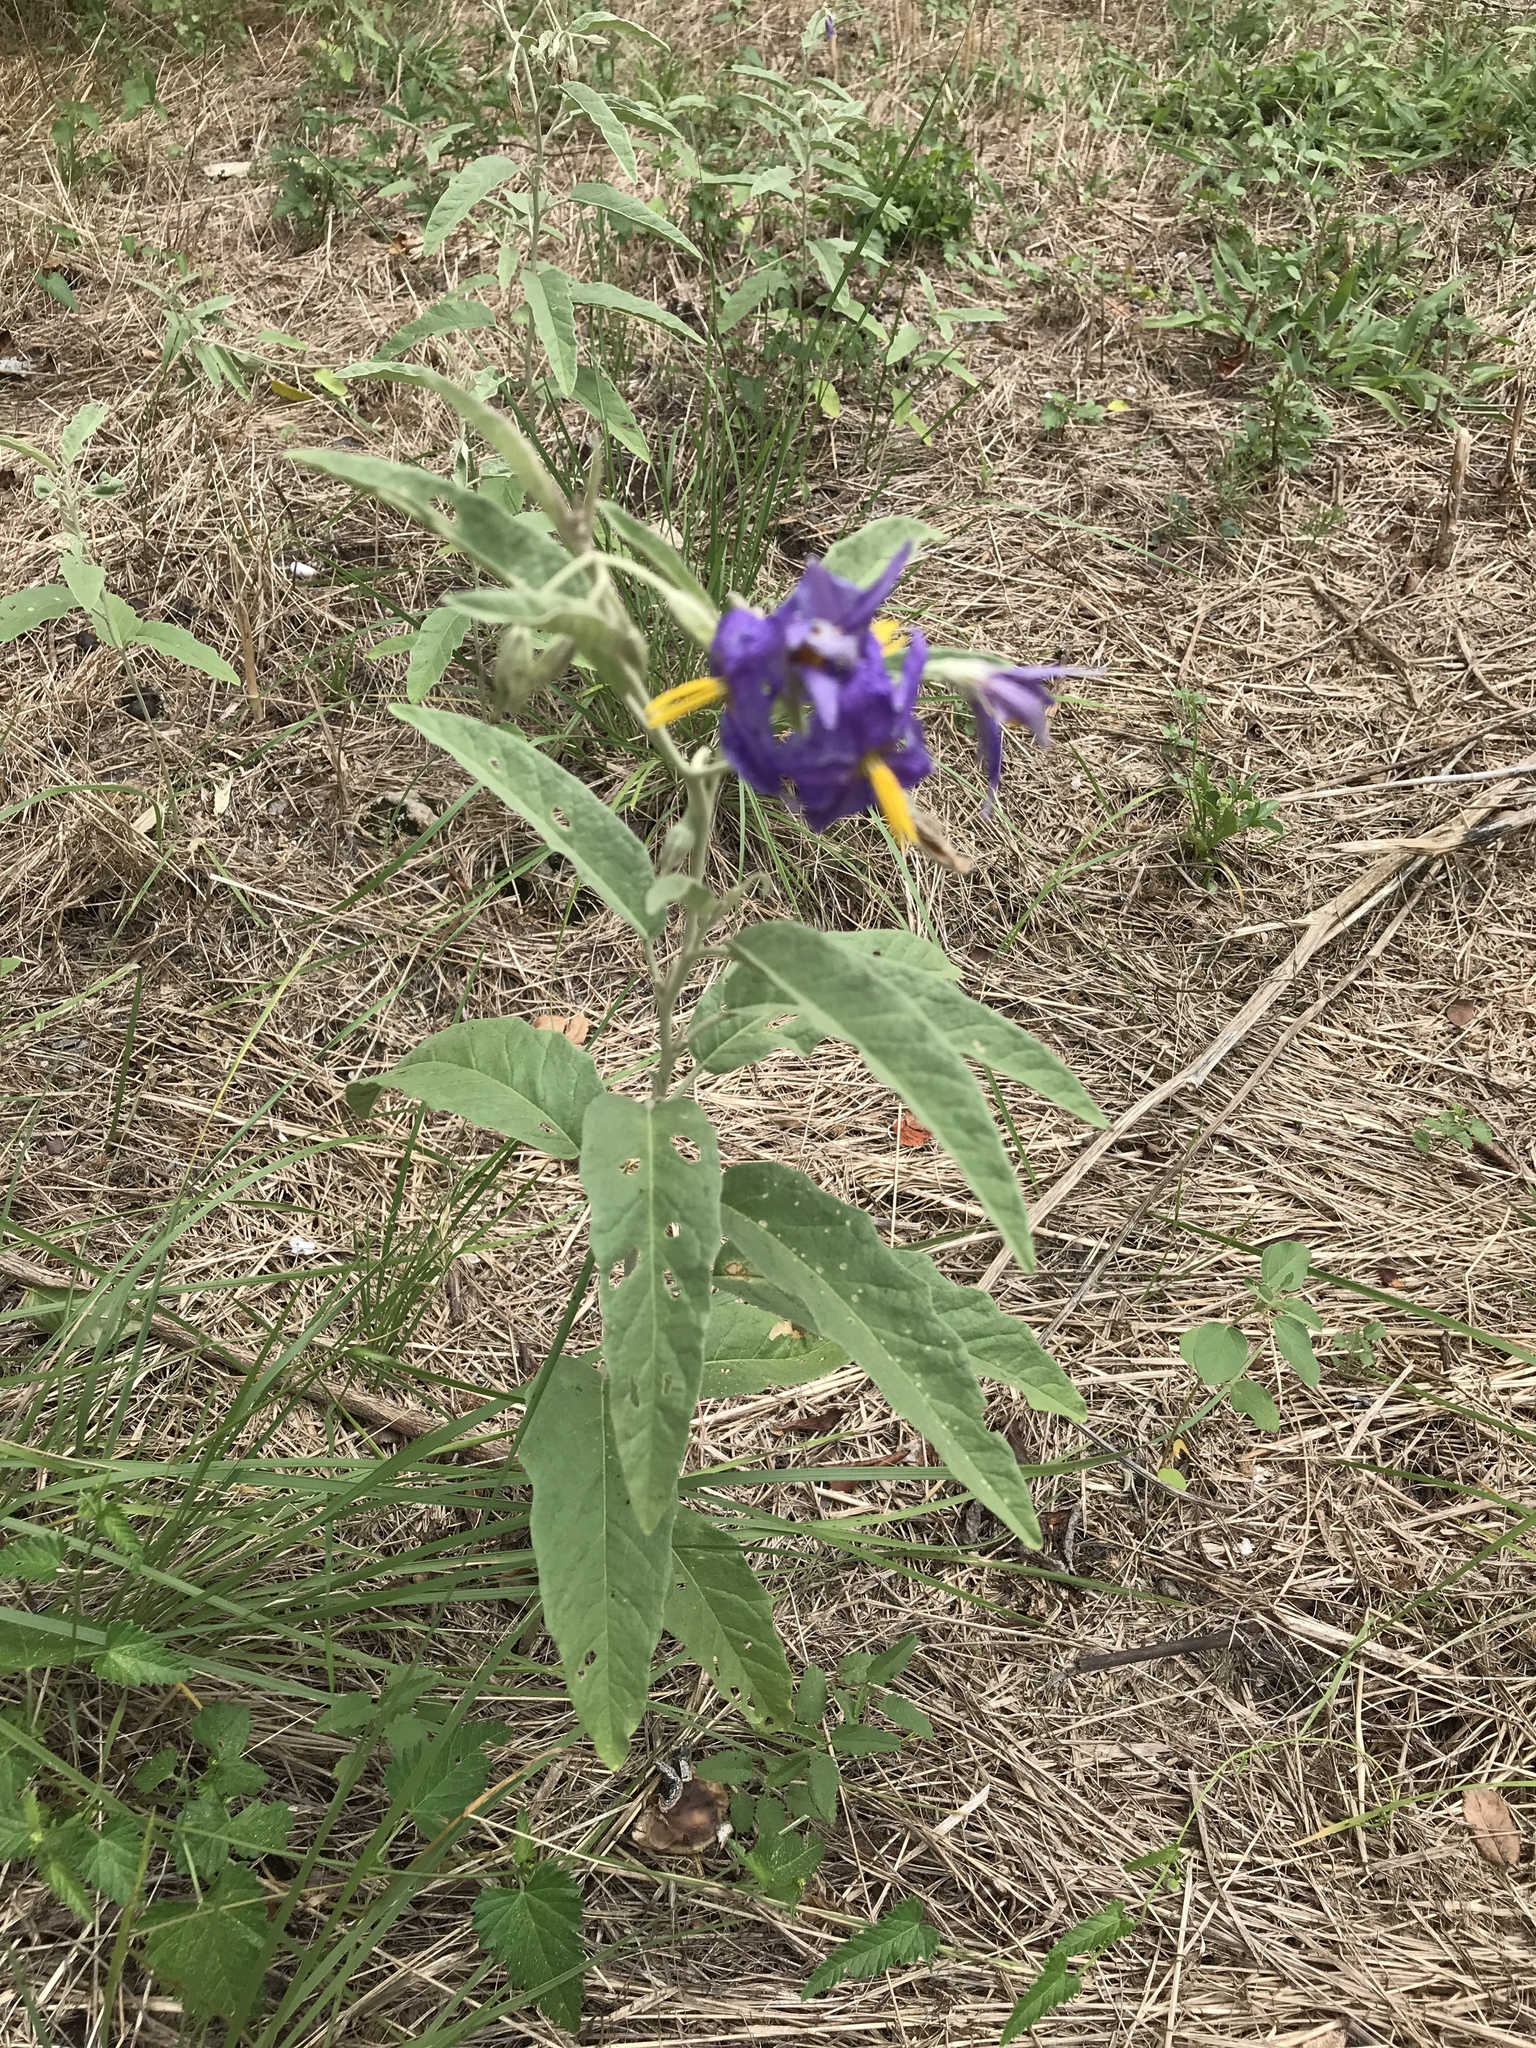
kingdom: Plantae
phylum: Tracheophyta
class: Magnoliopsida
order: Solanales
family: Solanaceae
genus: Solanum
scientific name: Solanum elaeagnifolium
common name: Silverleaf nightshade
